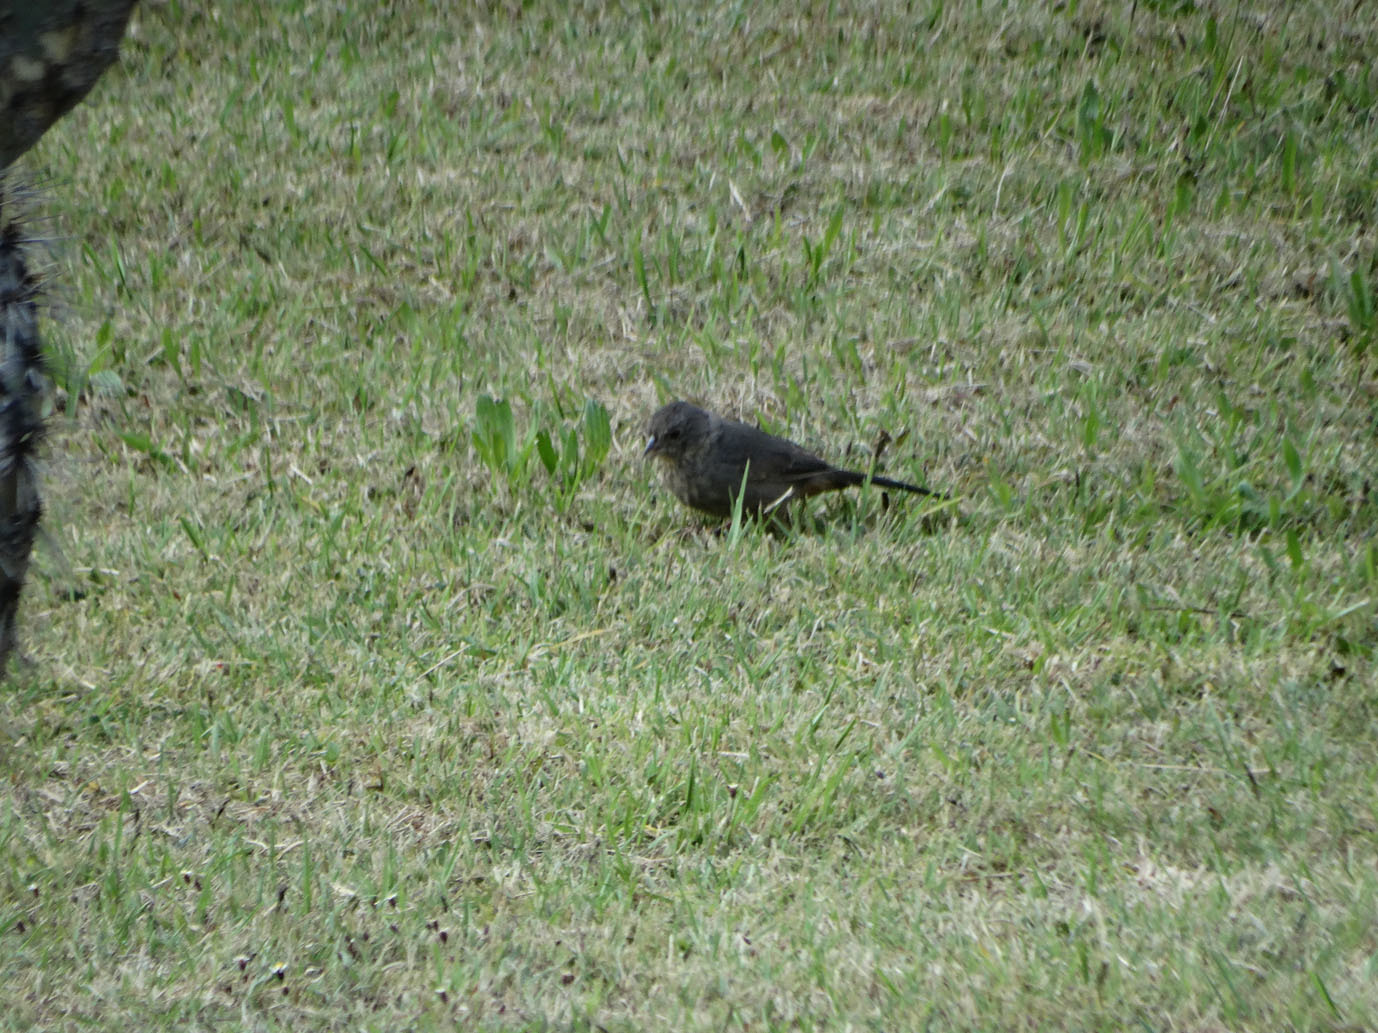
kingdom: Animalia
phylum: Chordata
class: Aves
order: Passeriformes
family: Passerellidae
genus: Melozone
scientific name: Melozone fusca
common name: Canyon towhee
